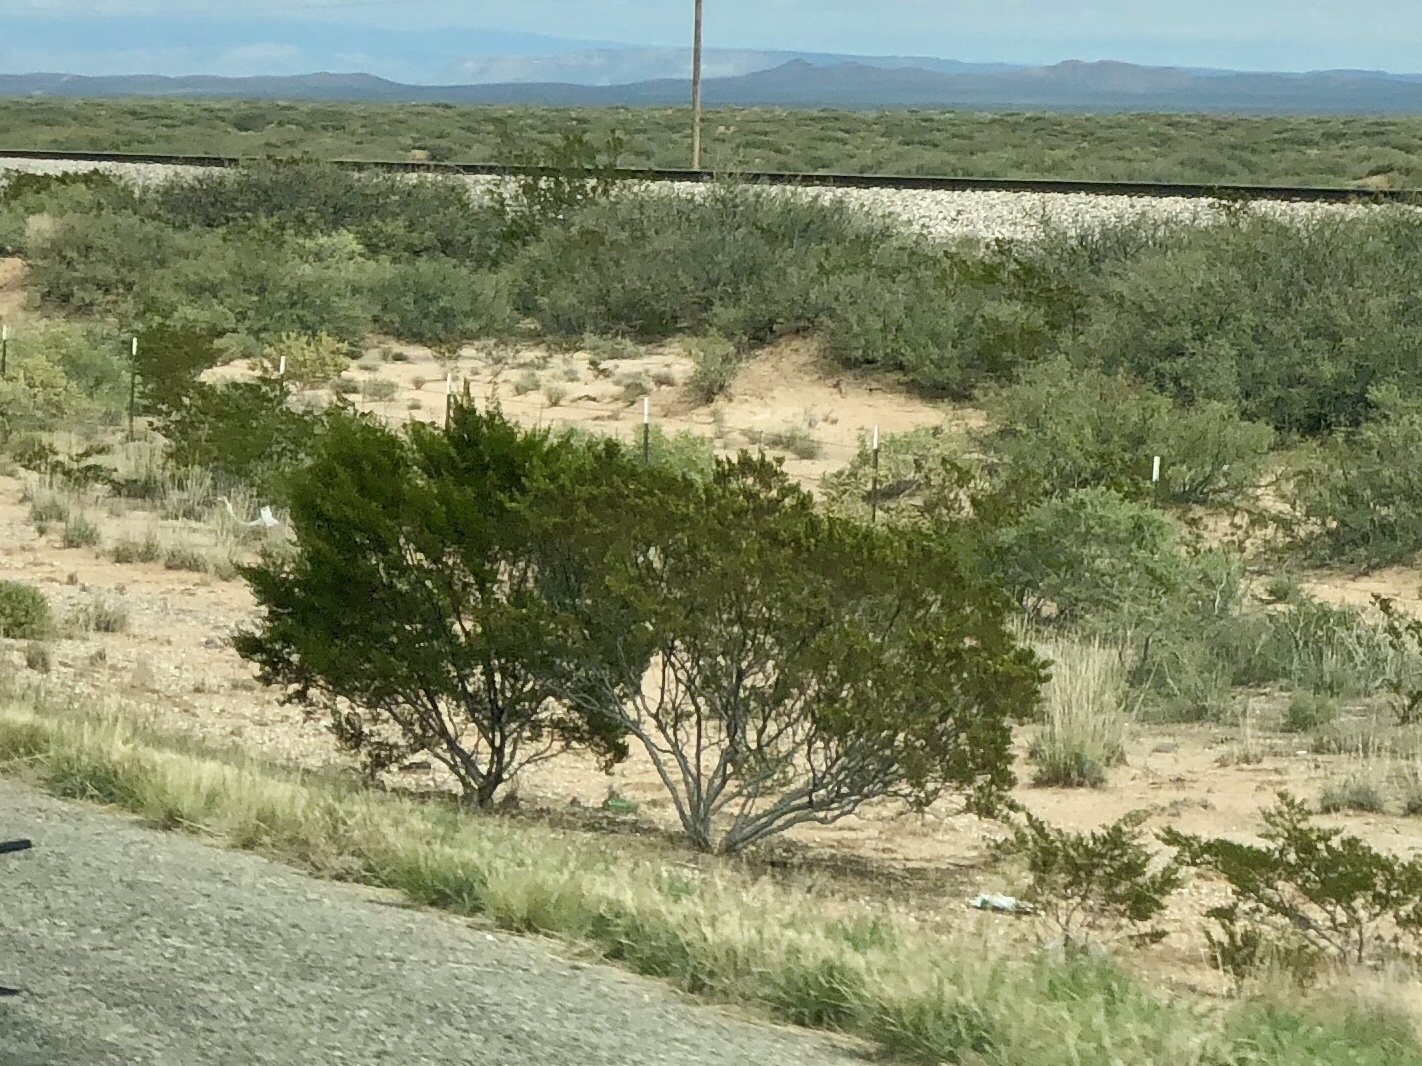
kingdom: Plantae
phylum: Tracheophyta
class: Magnoliopsida
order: Zygophyllales
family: Zygophyllaceae
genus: Larrea
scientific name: Larrea tridentata
